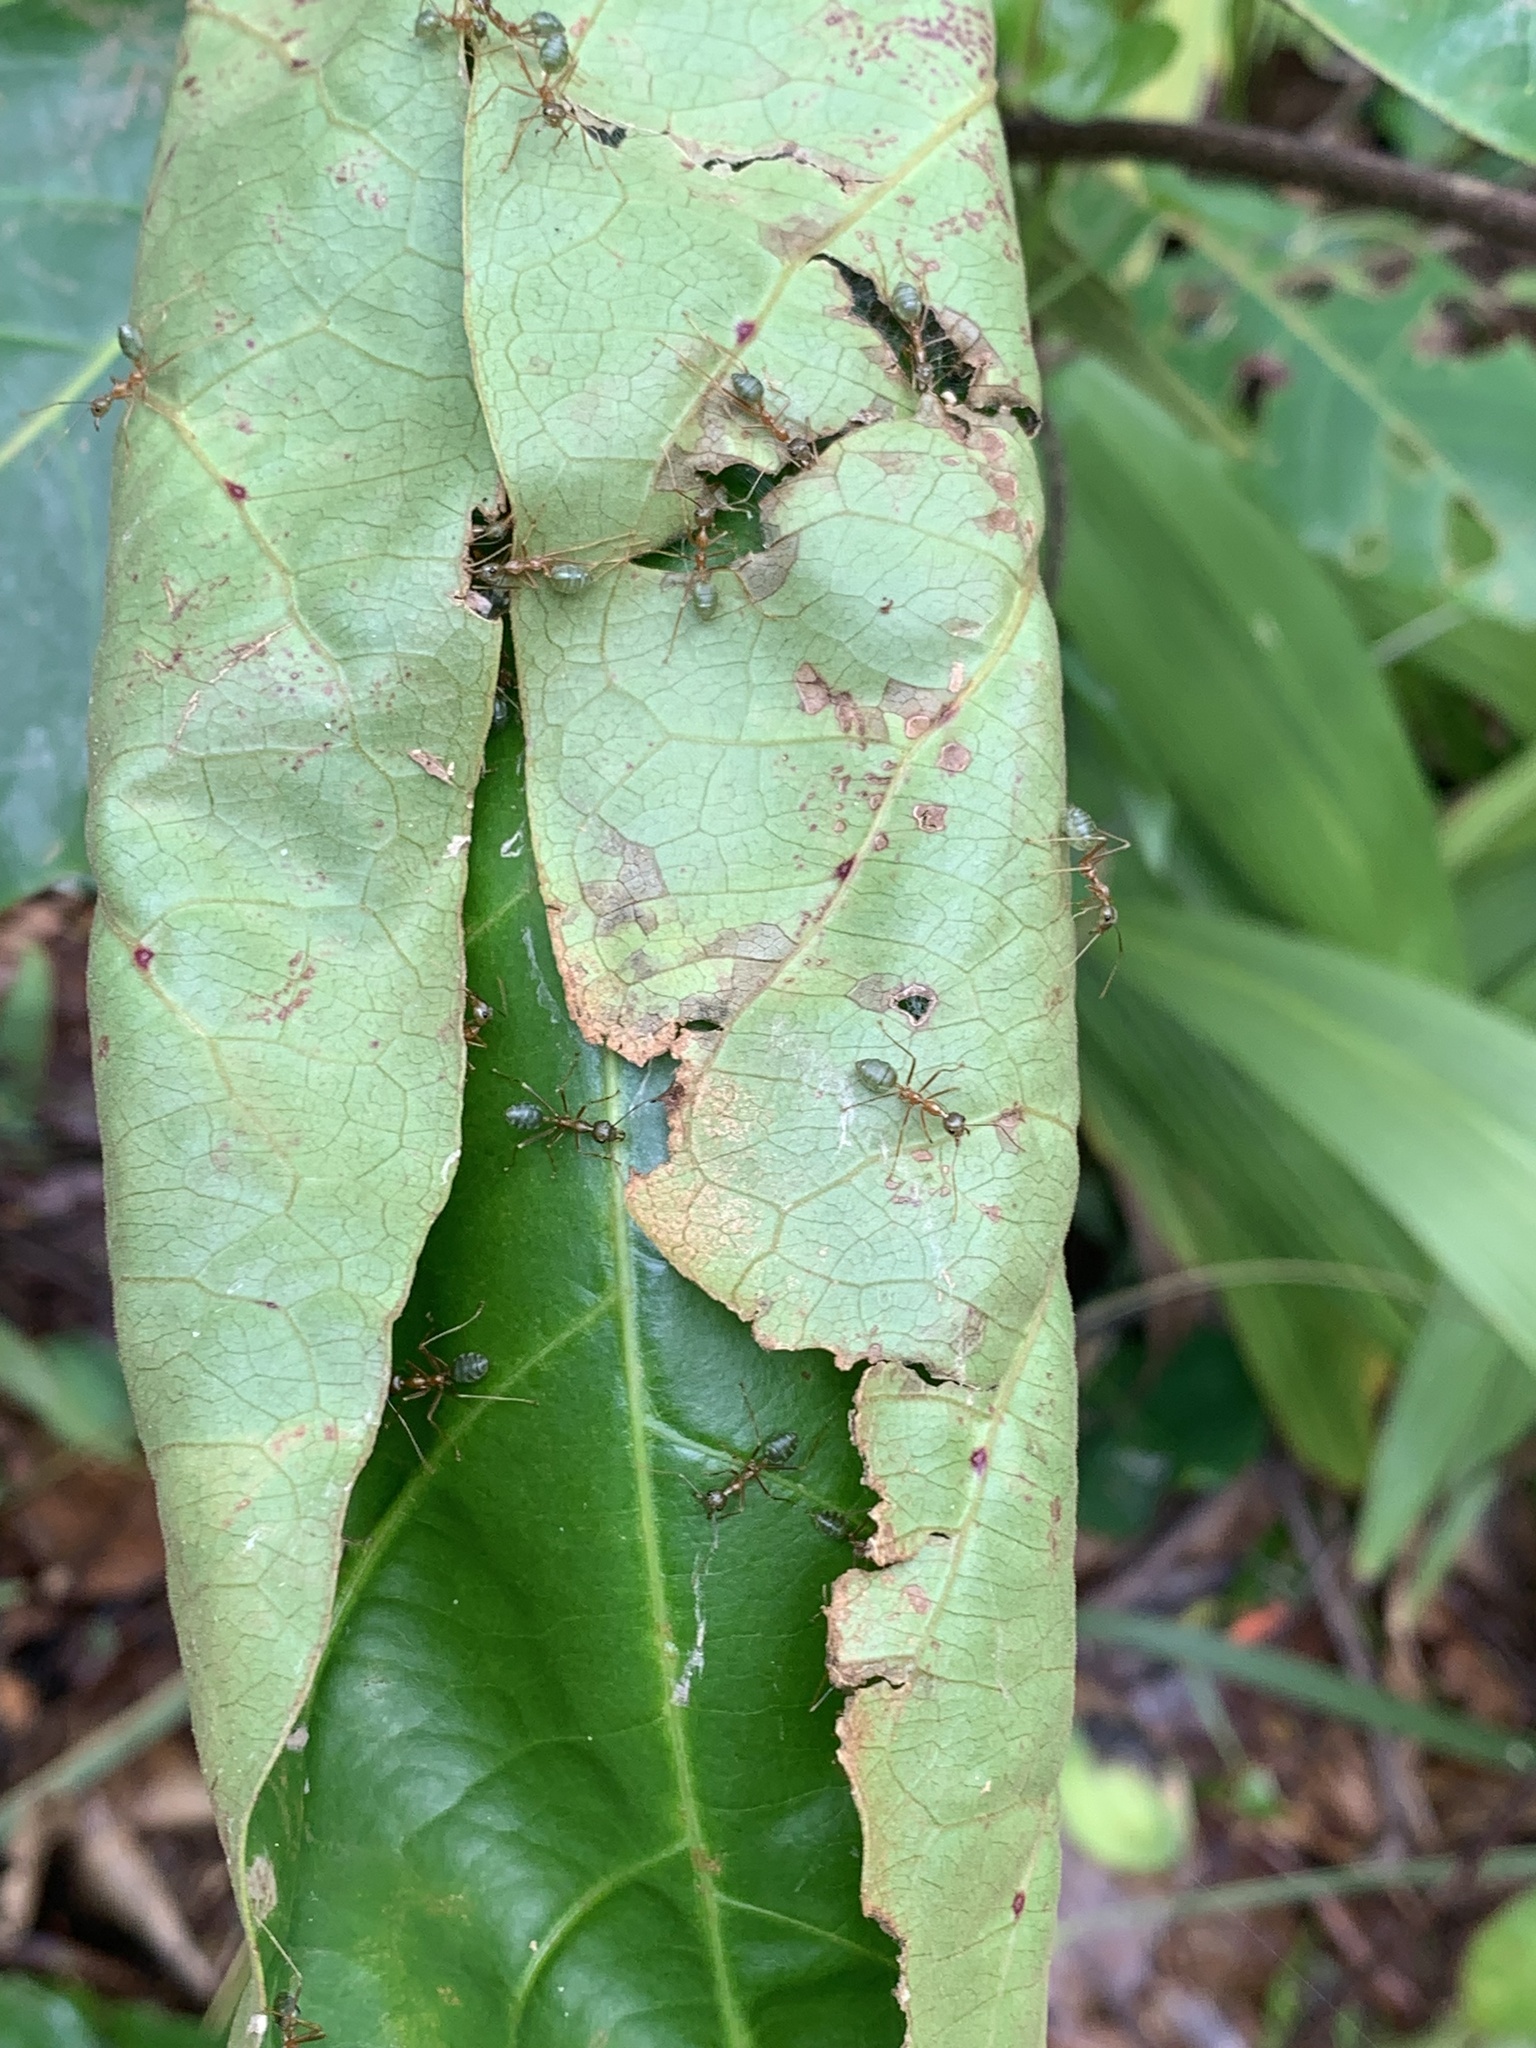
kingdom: Animalia
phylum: Arthropoda
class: Insecta
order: Hymenoptera
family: Formicidae
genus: Oecophylla
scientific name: Oecophylla smaragdina
